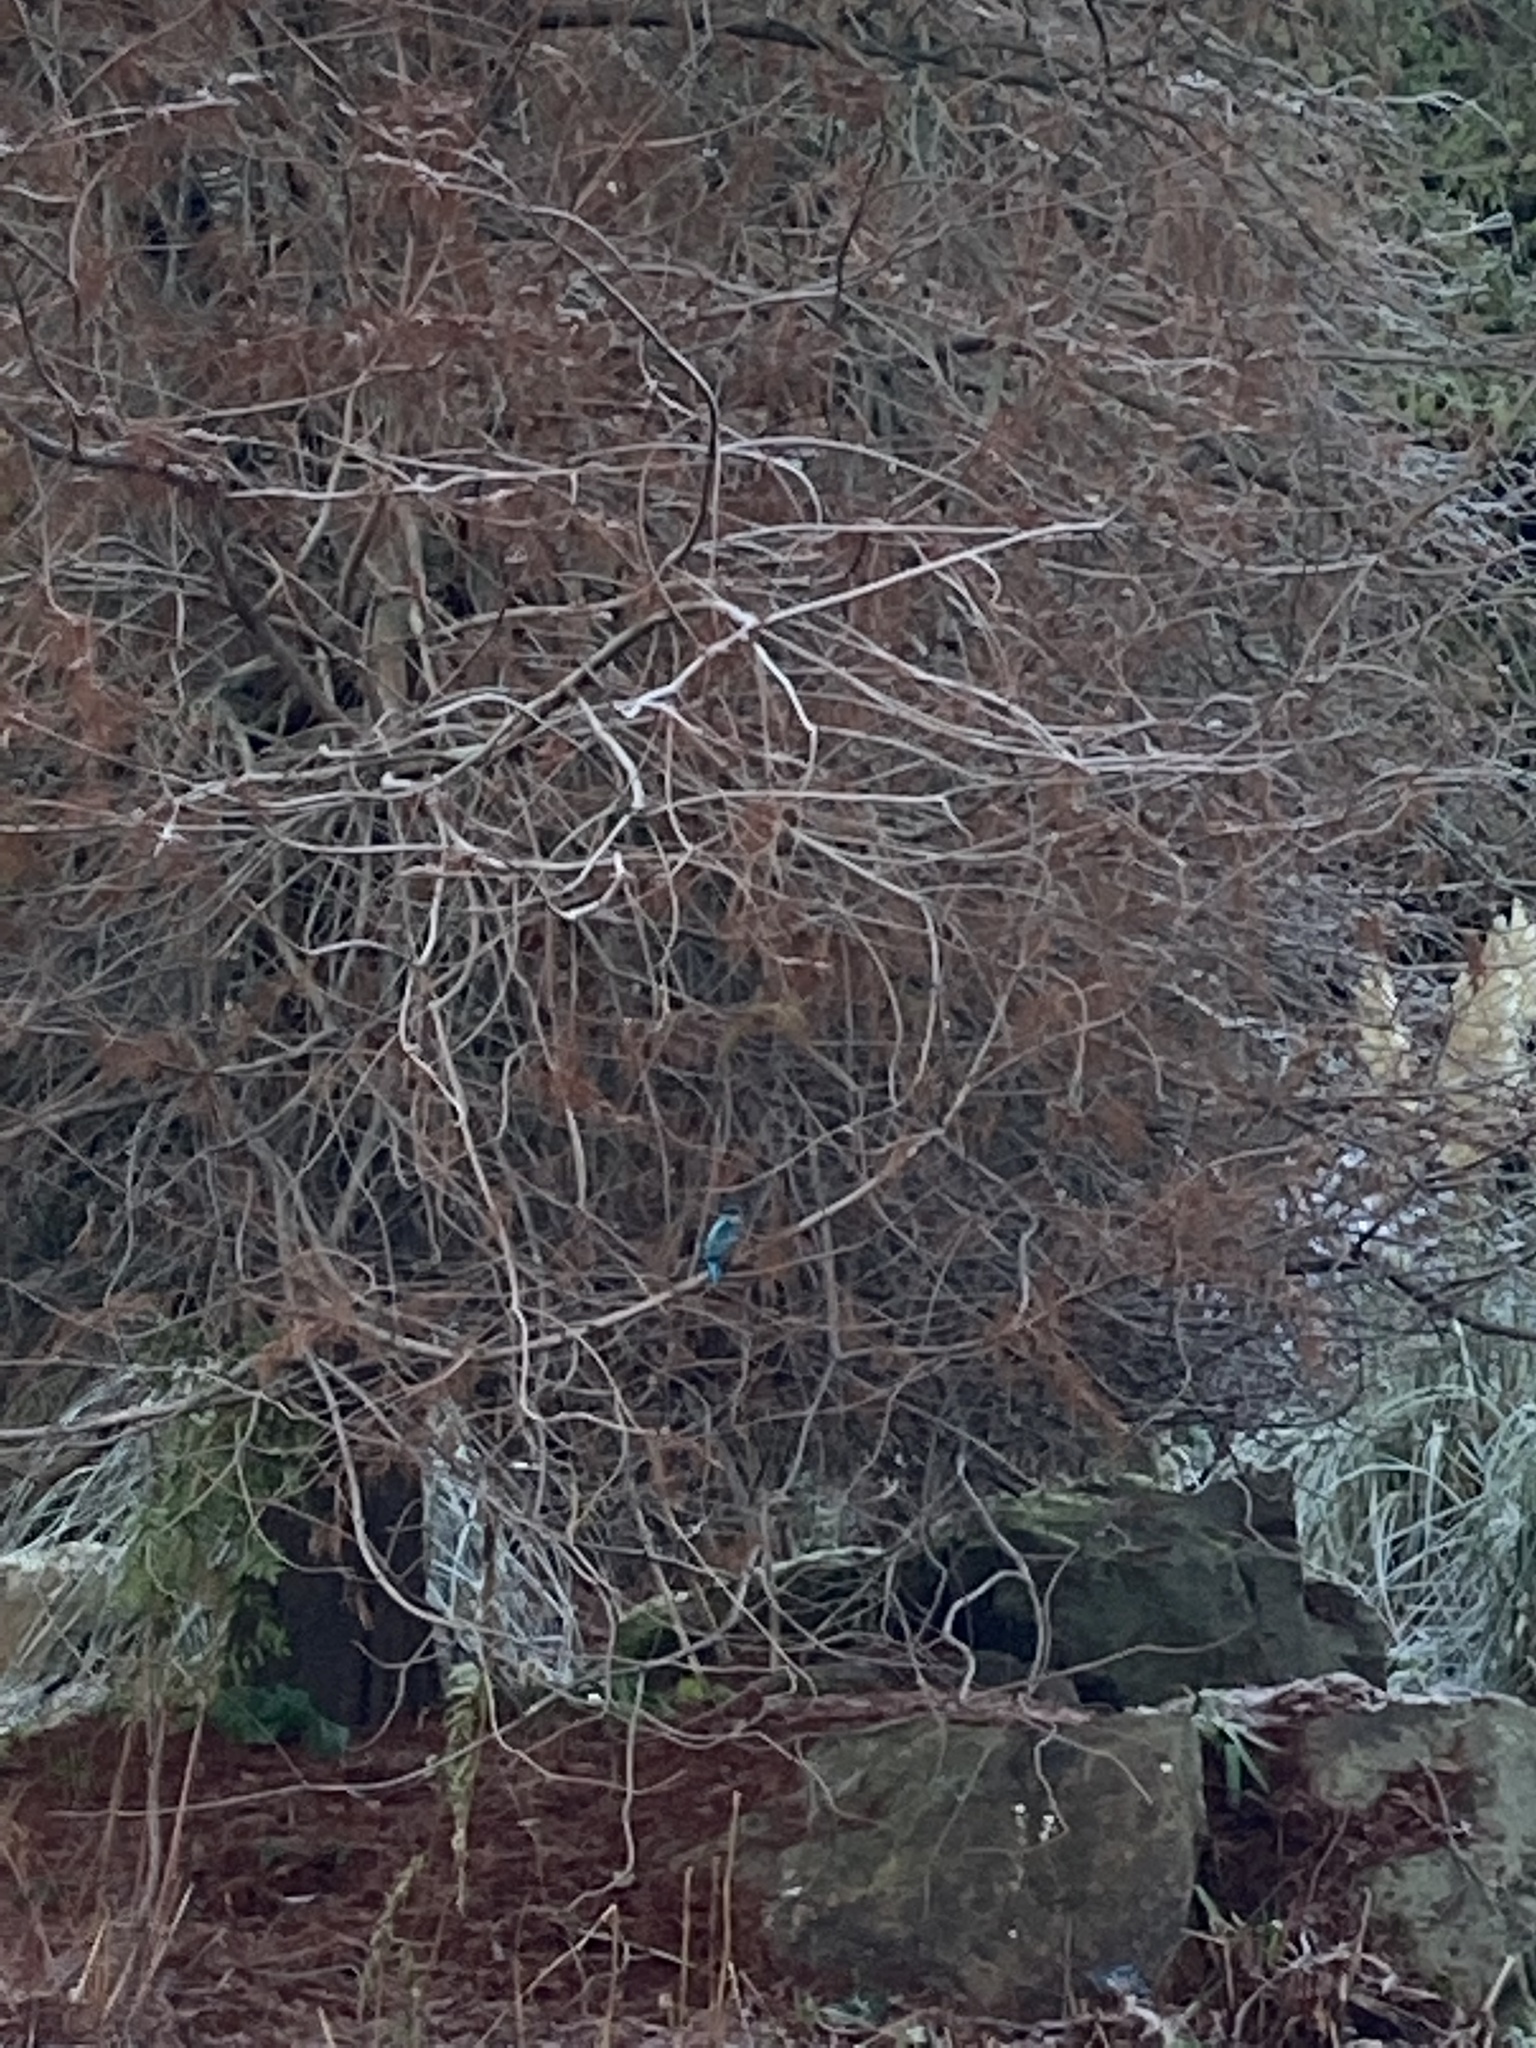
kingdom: Animalia
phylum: Chordata
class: Aves
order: Coraciiformes
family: Alcedinidae
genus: Alcedo
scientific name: Alcedo atthis
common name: Common kingfisher
